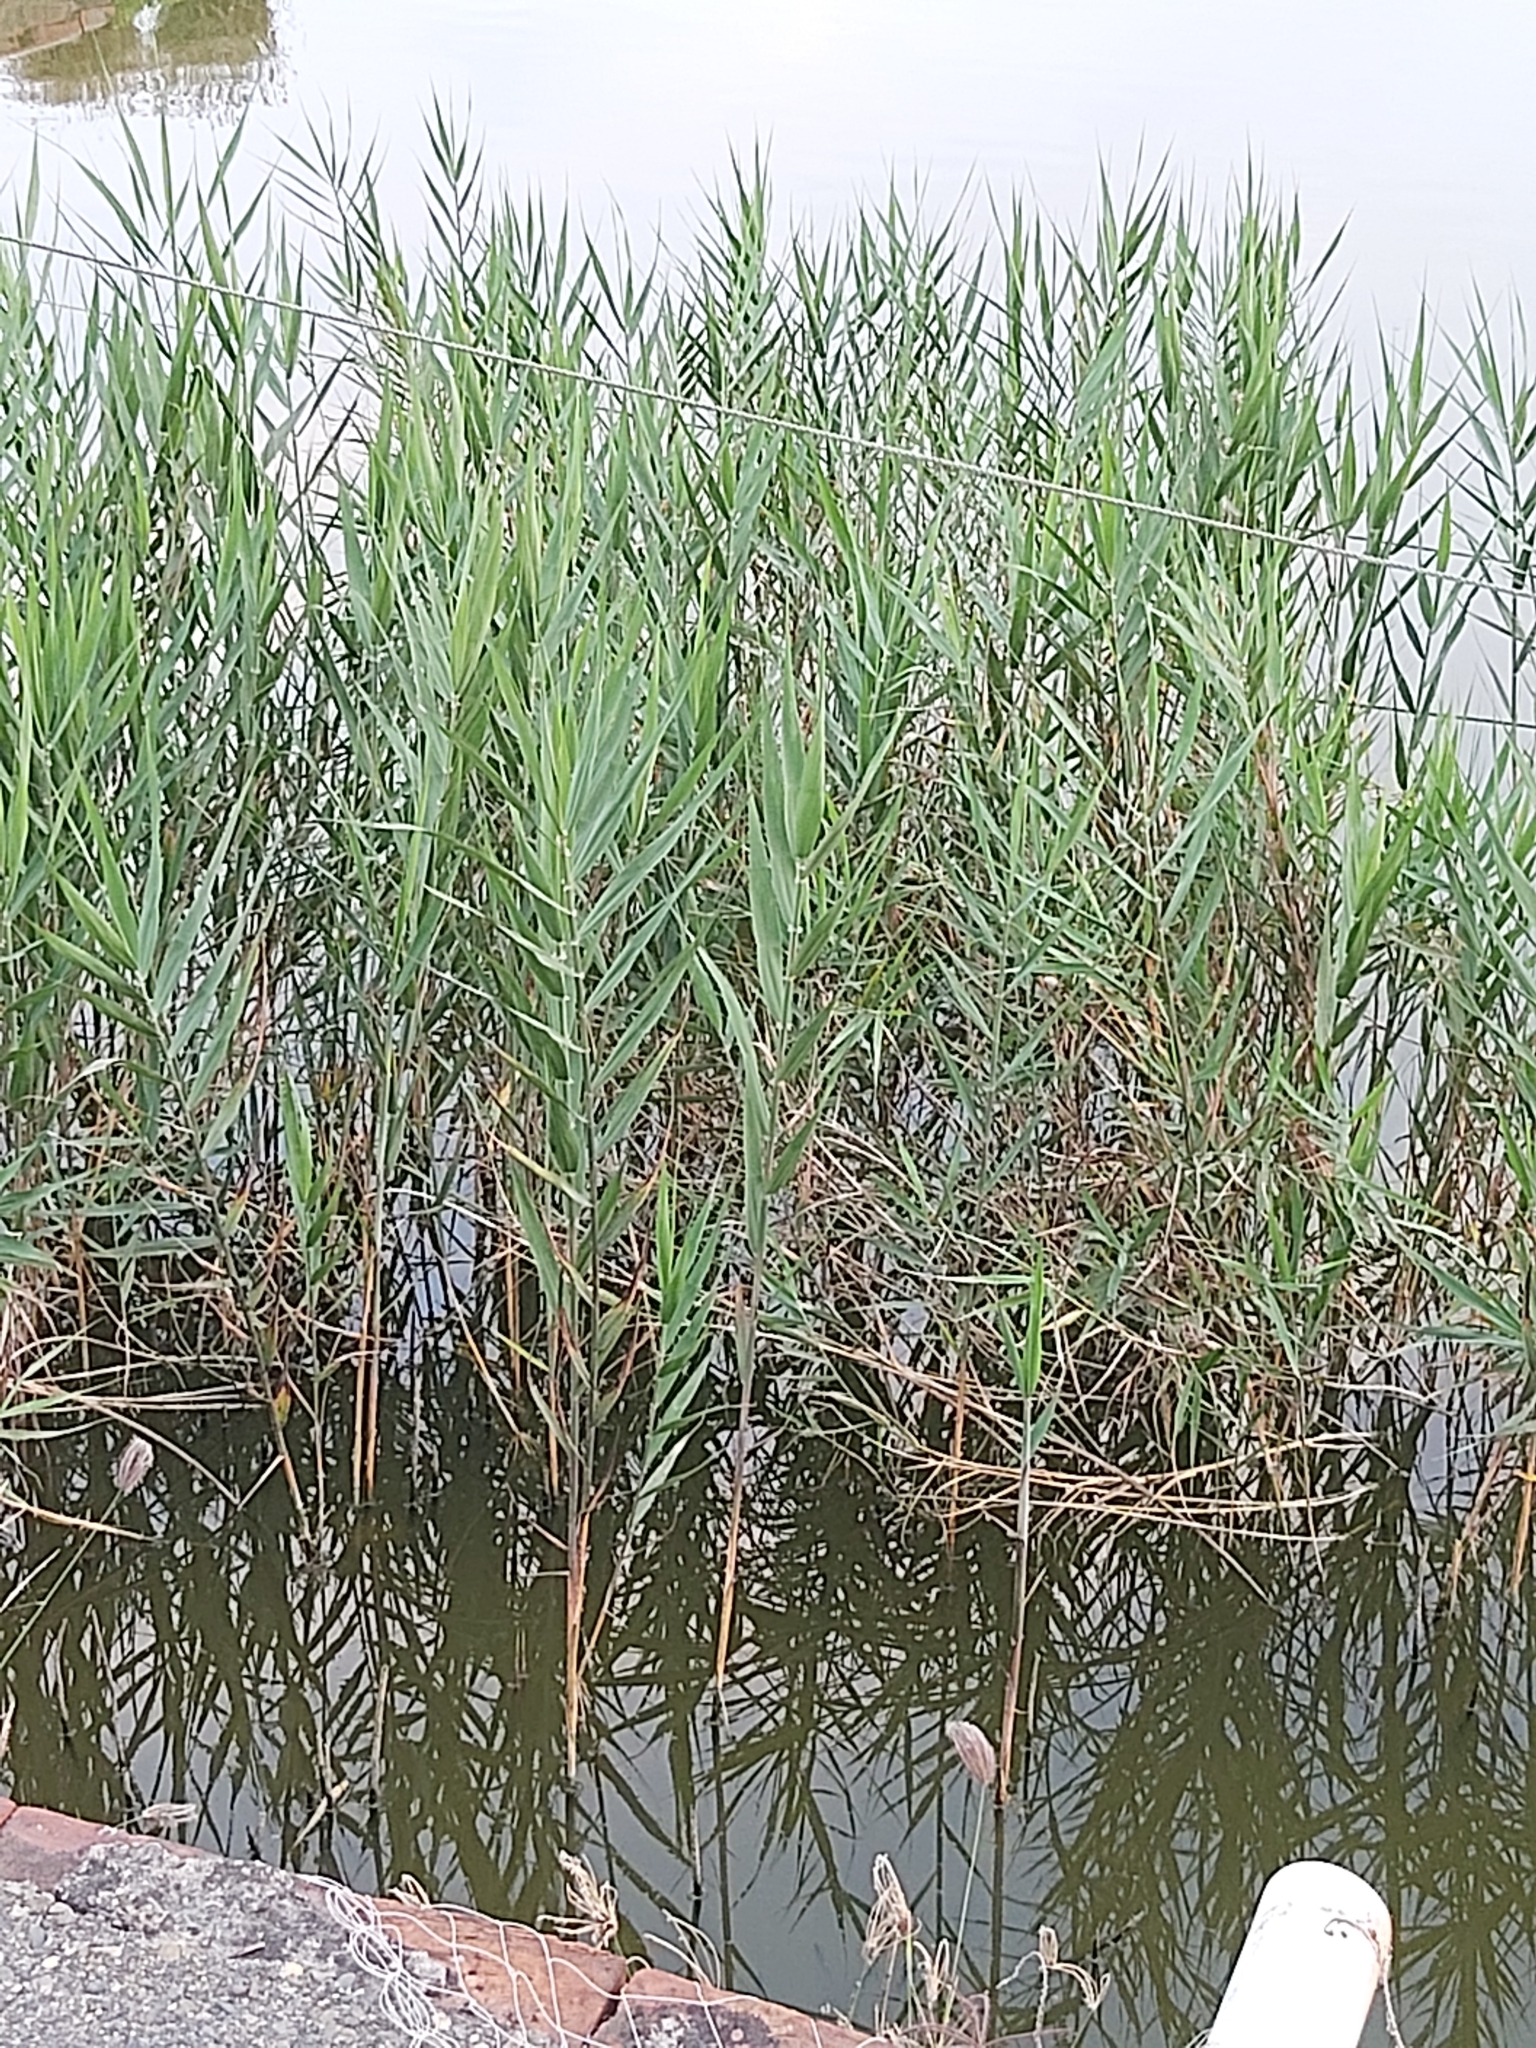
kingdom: Plantae
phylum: Tracheophyta
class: Liliopsida
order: Poales
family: Poaceae
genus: Phragmites
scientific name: Phragmites australis
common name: Common reed
